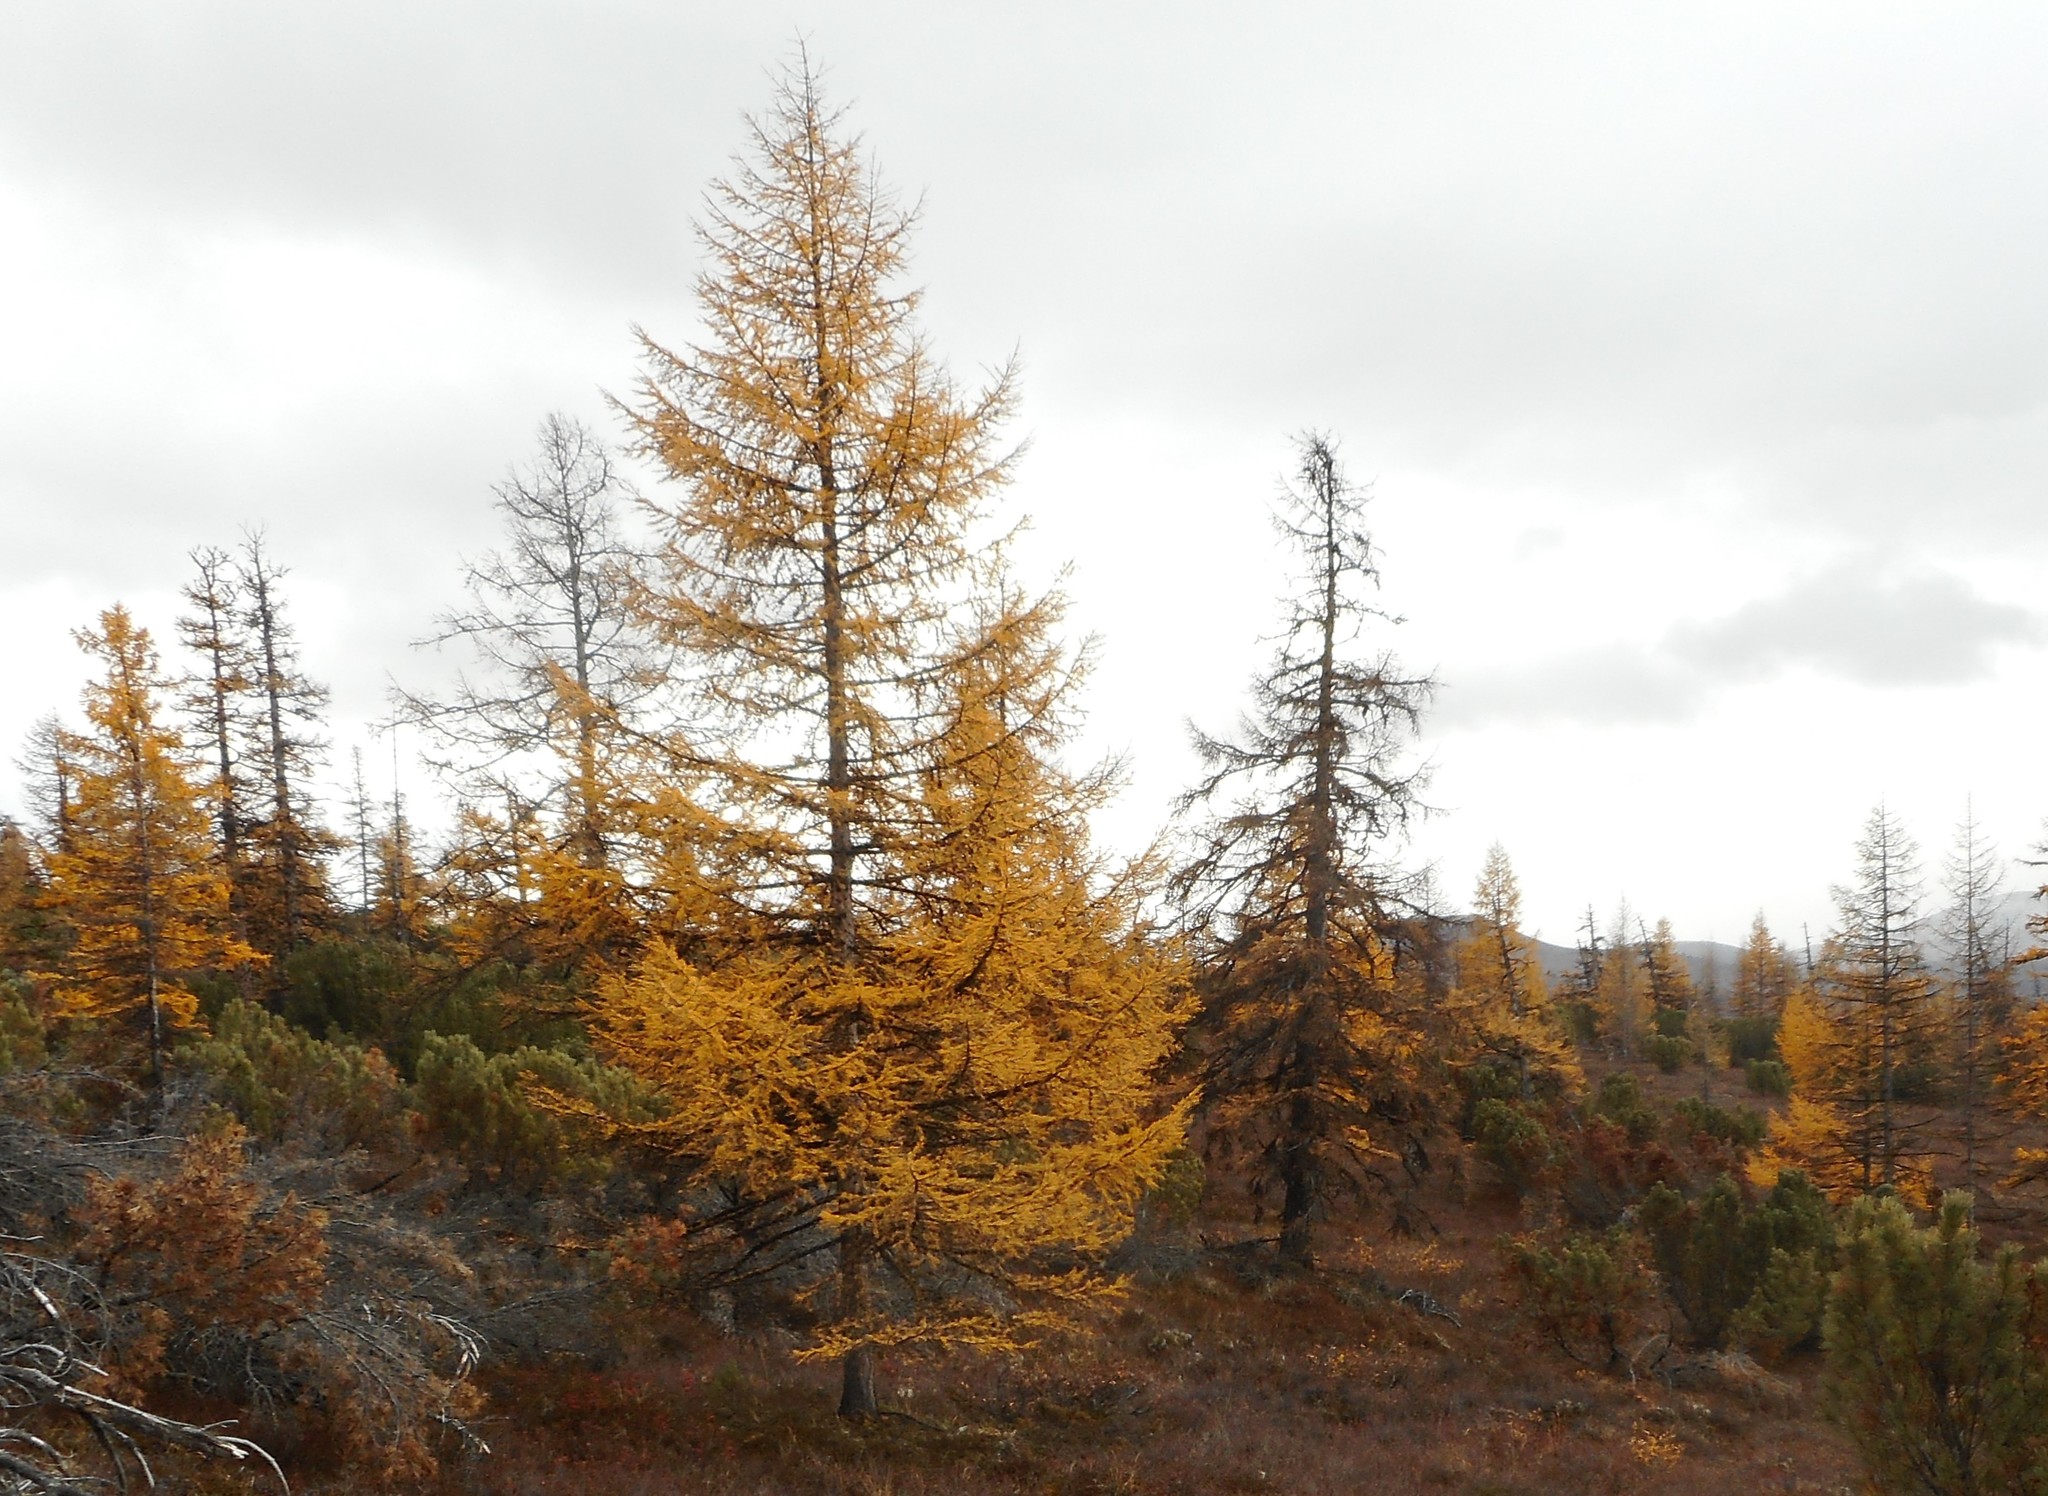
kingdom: Plantae
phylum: Tracheophyta
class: Pinopsida
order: Pinales
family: Pinaceae
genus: Larix
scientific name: Larix gmelinii
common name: Dahurian larch
